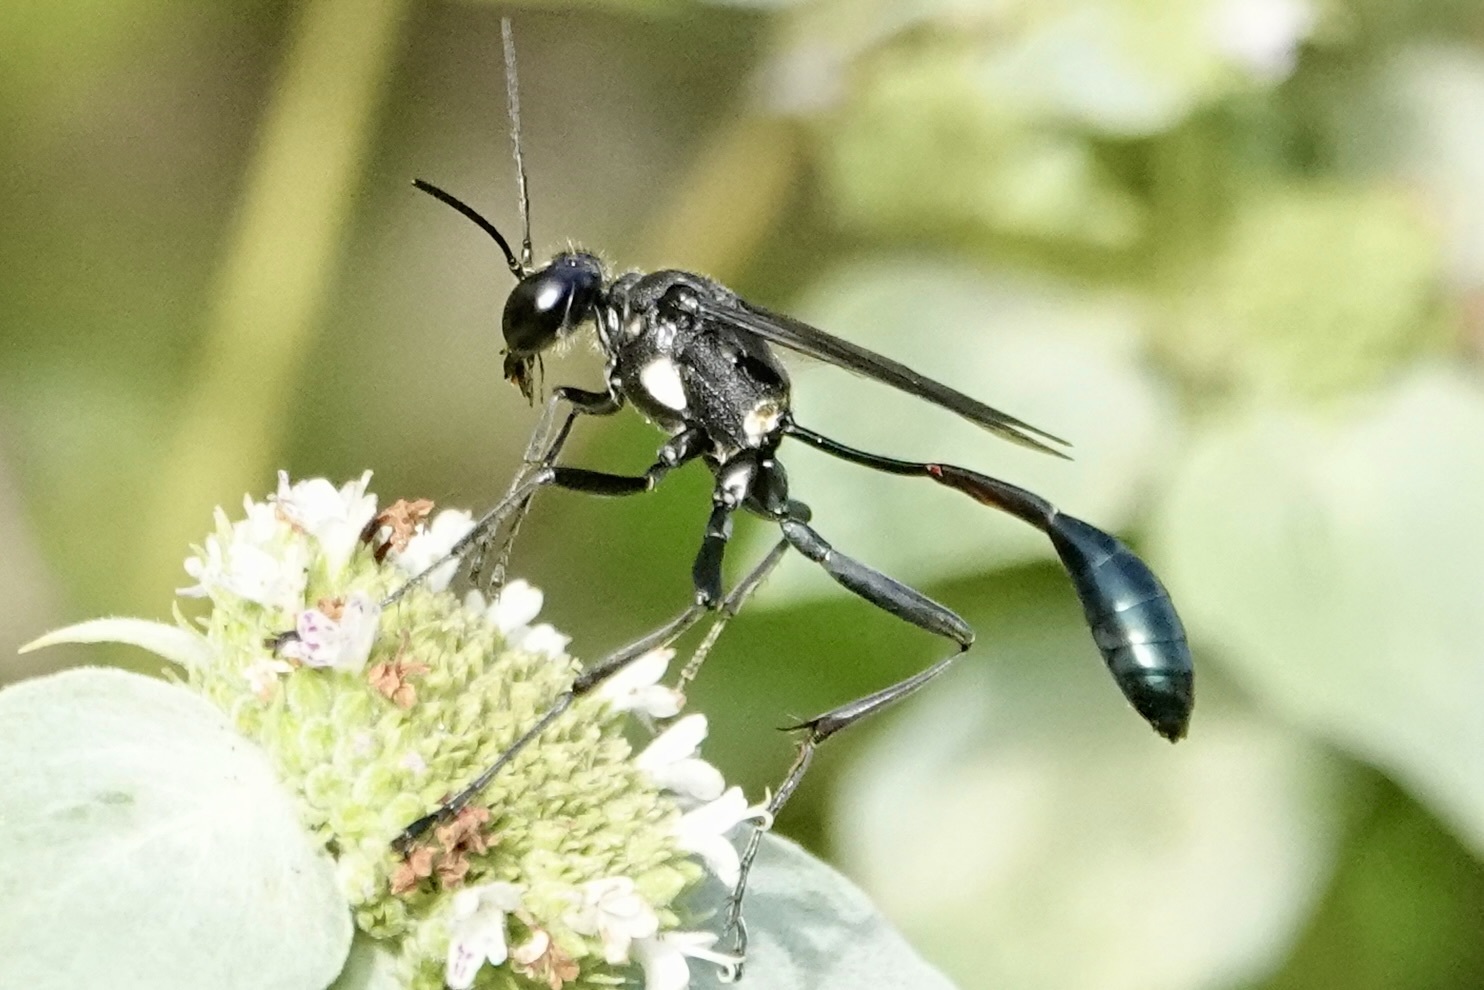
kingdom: Animalia
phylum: Arthropoda
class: Insecta
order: Hymenoptera
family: Sphecidae
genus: Eremnophila
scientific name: Eremnophila aureonotata
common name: Gold-marked thread-waisted wasp
